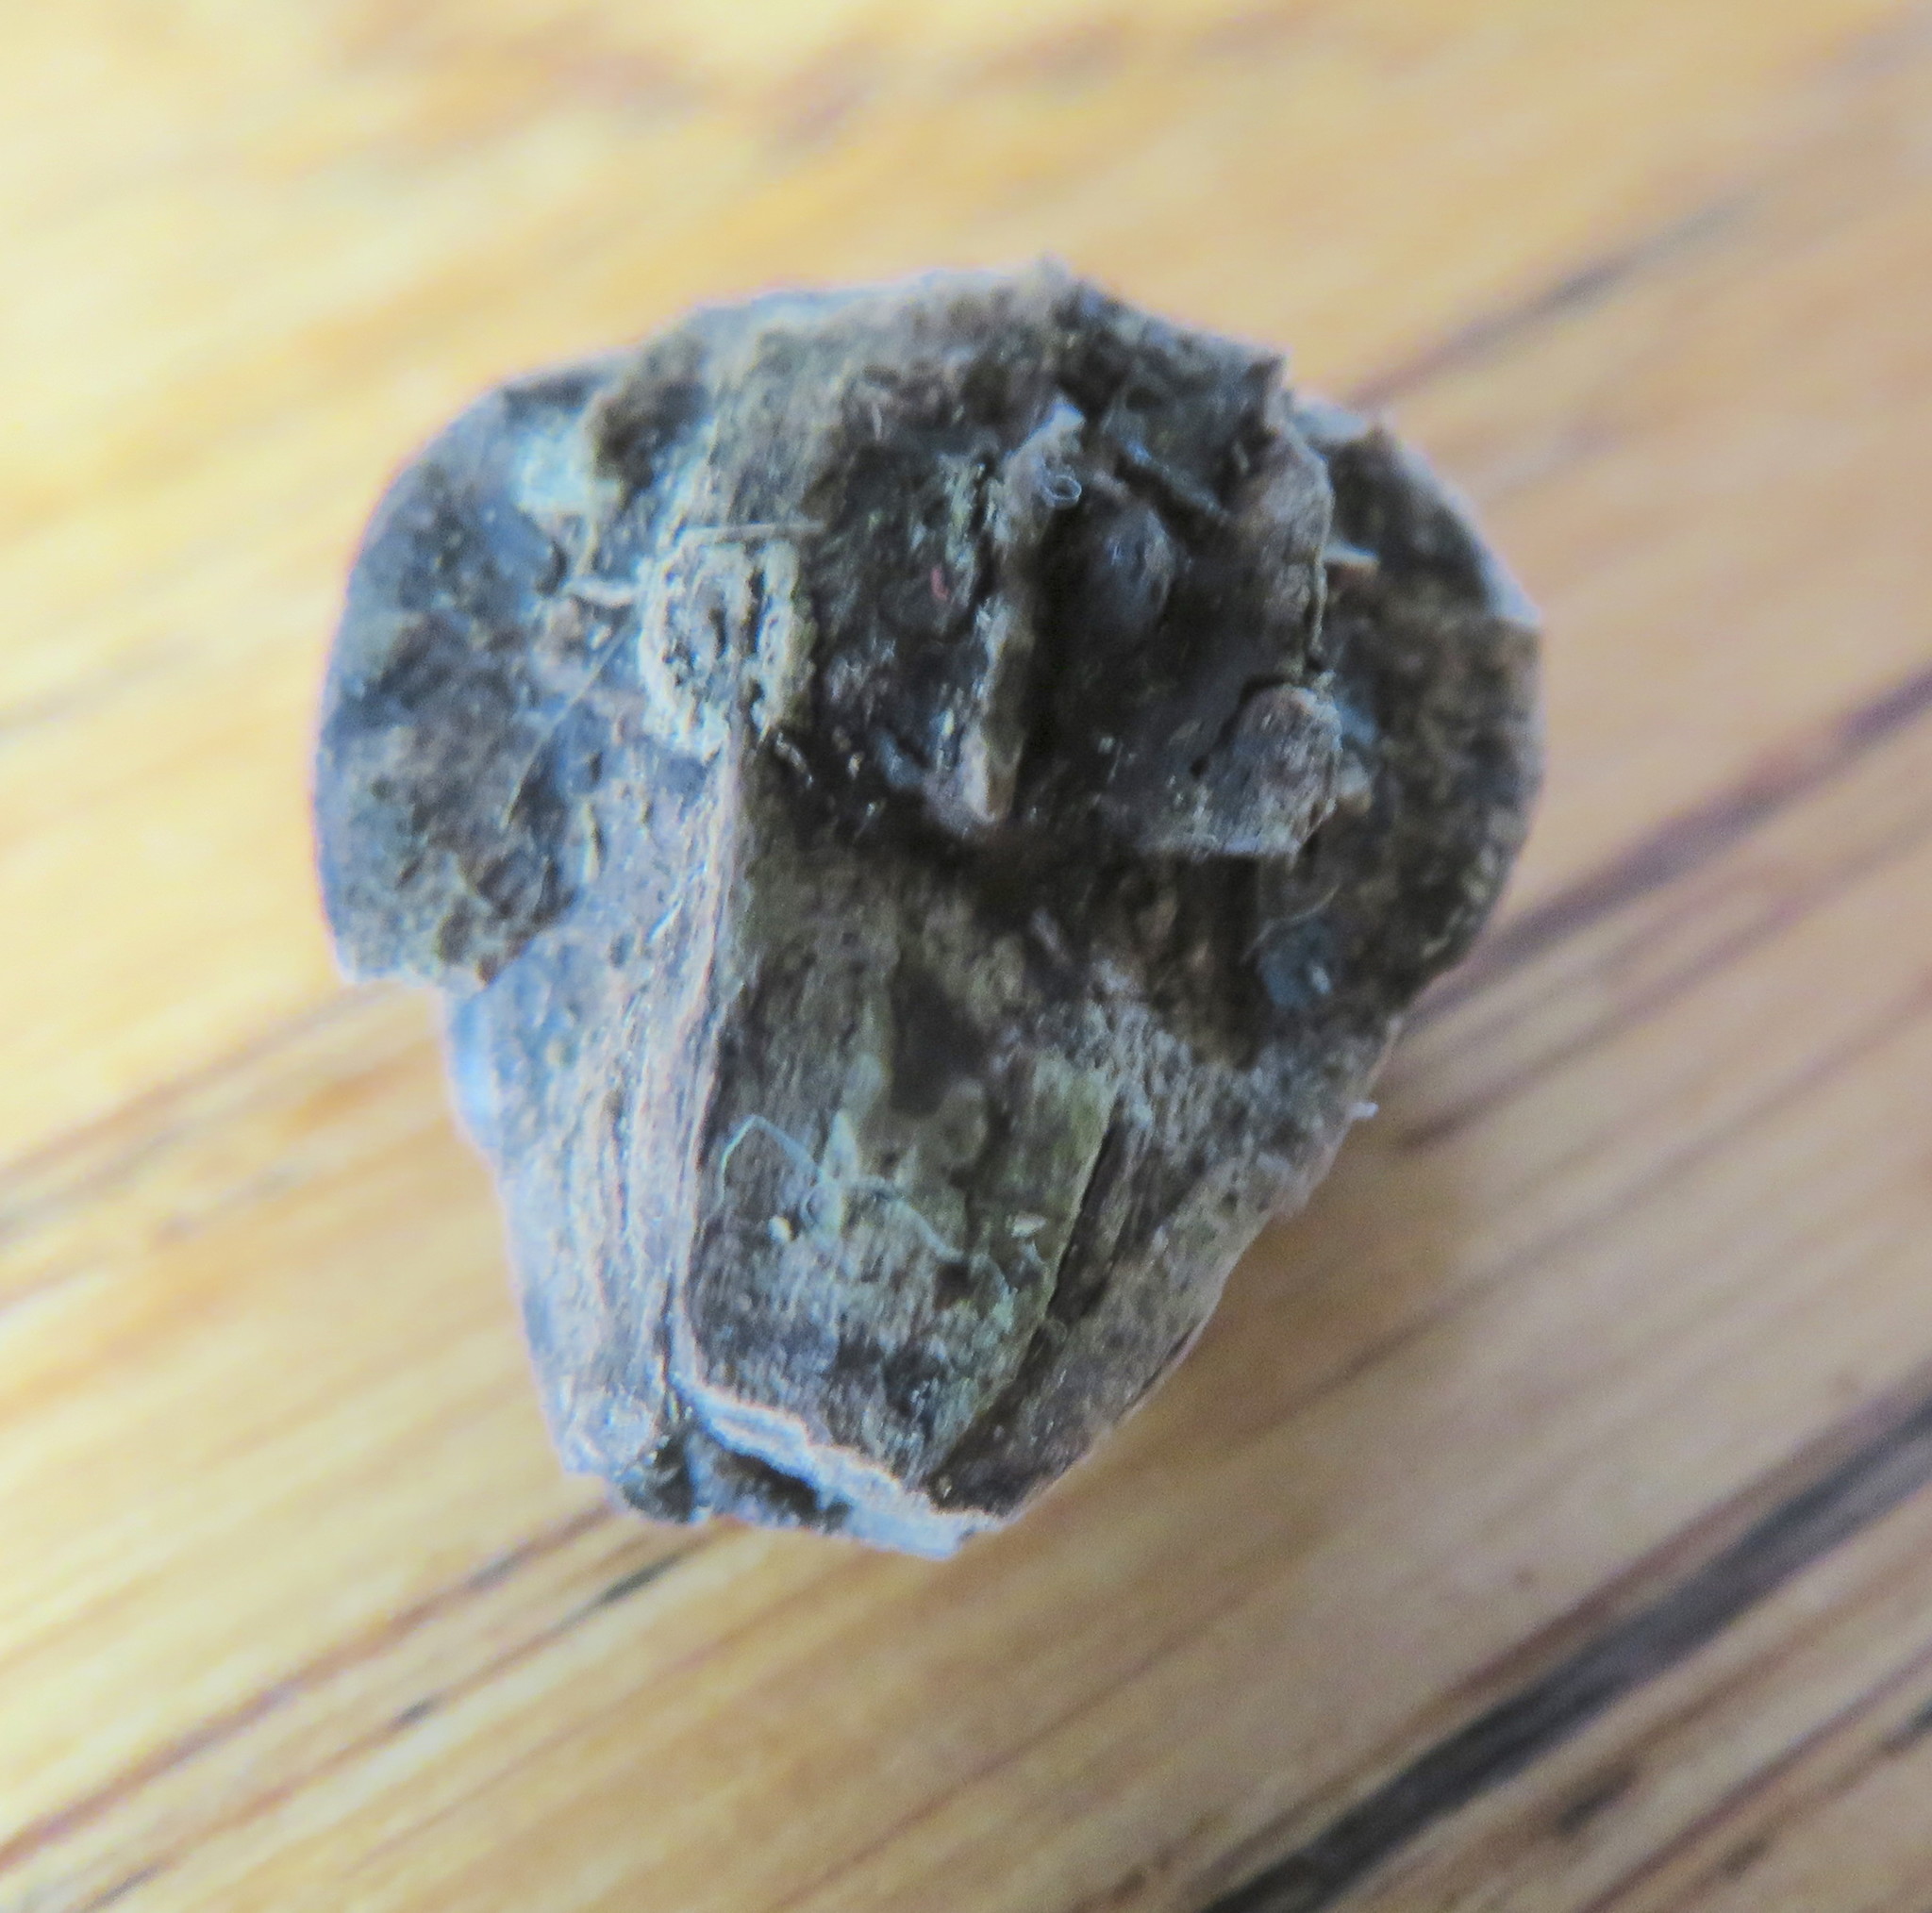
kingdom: Plantae
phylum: Tracheophyta
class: Magnoliopsida
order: Lamiales
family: Lamiaceae
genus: Vitex
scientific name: Vitex lucens
